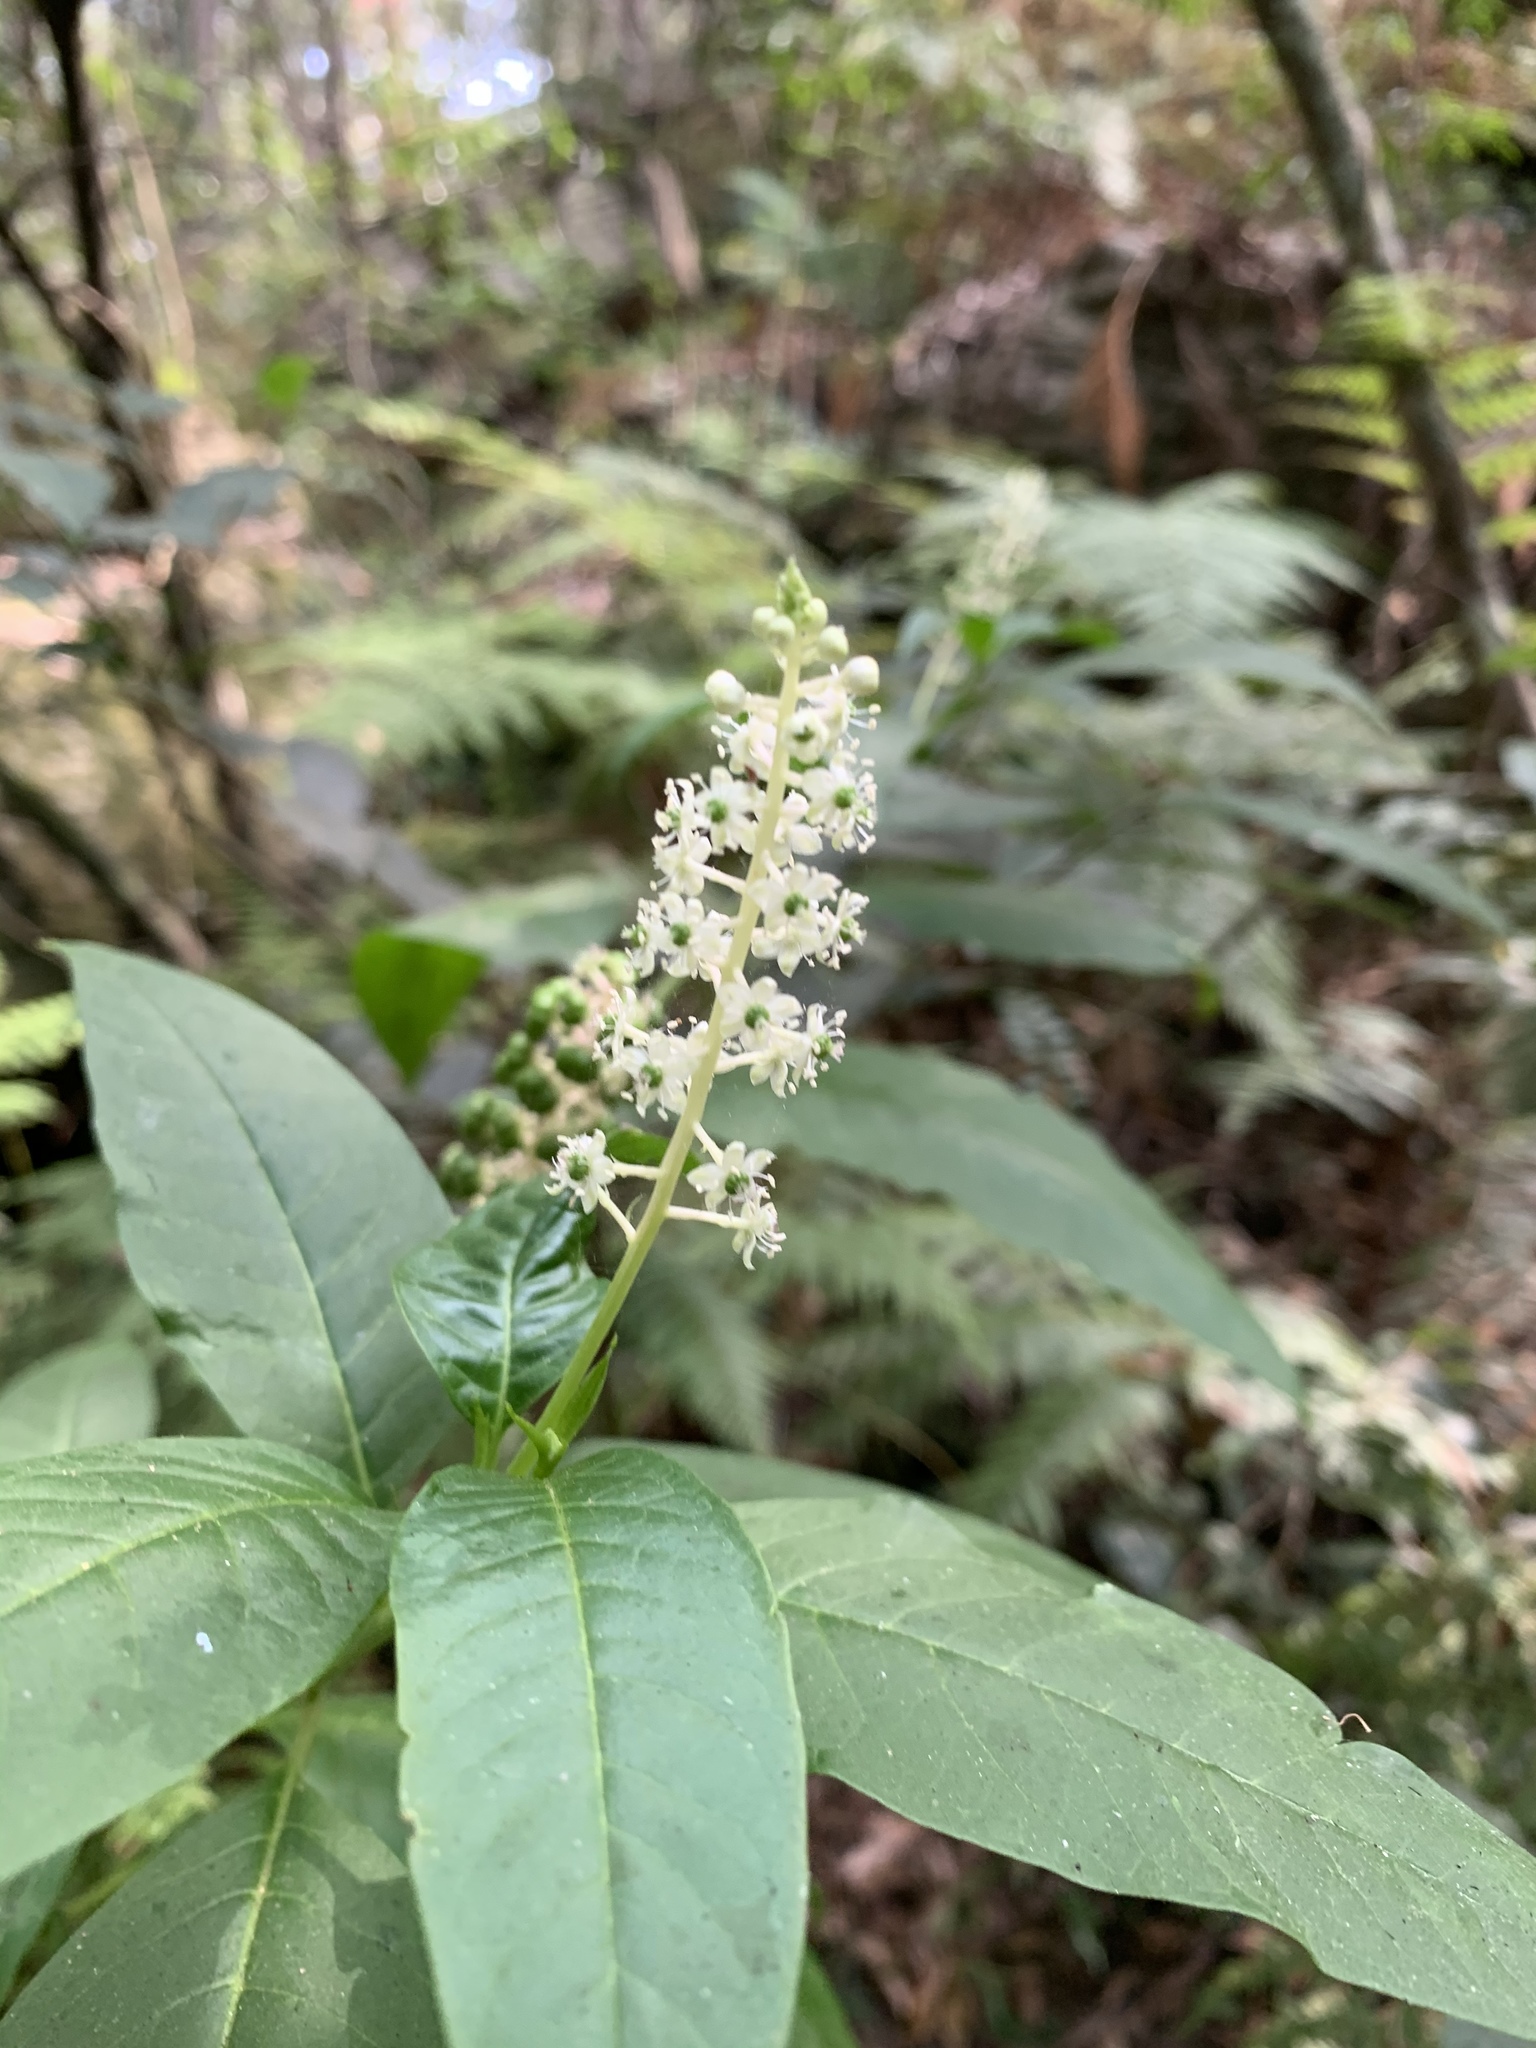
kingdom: Plantae
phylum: Tracheophyta
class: Magnoliopsida
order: Caryophyllales
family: Phytolaccaceae
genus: Phytolacca
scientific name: Phytolacca americana
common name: American pokeweed
